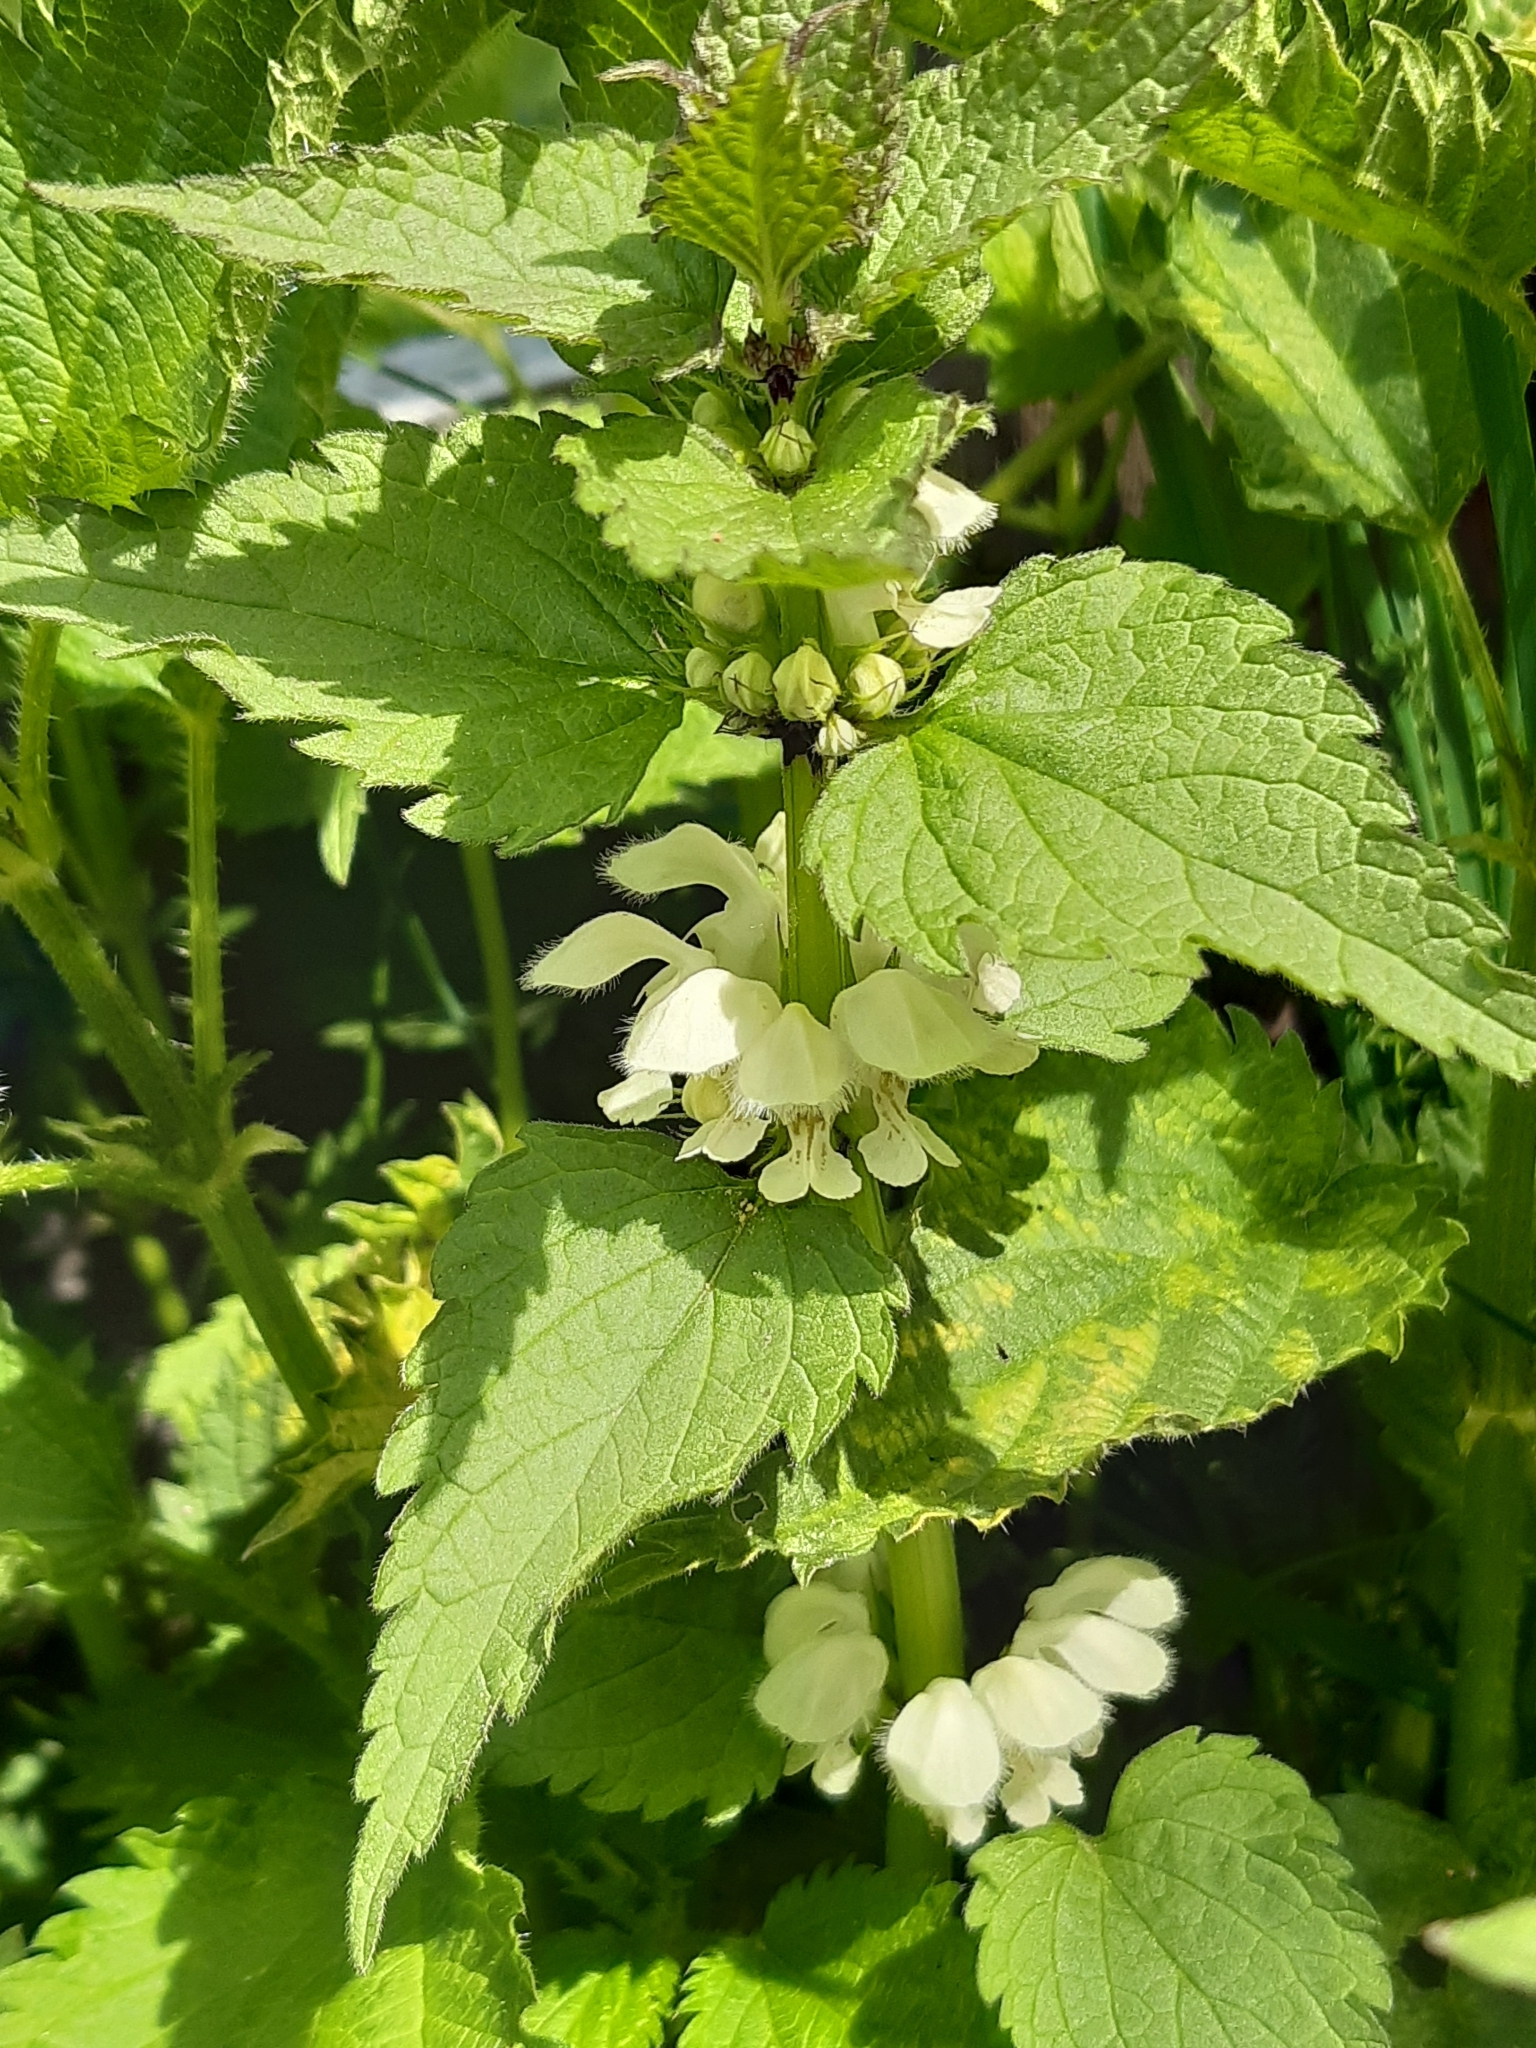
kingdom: Plantae
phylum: Tracheophyta
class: Magnoliopsida
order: Lamiales
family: Lamiaceae
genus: Lamium
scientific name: Lamium album
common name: White dead-nettle
